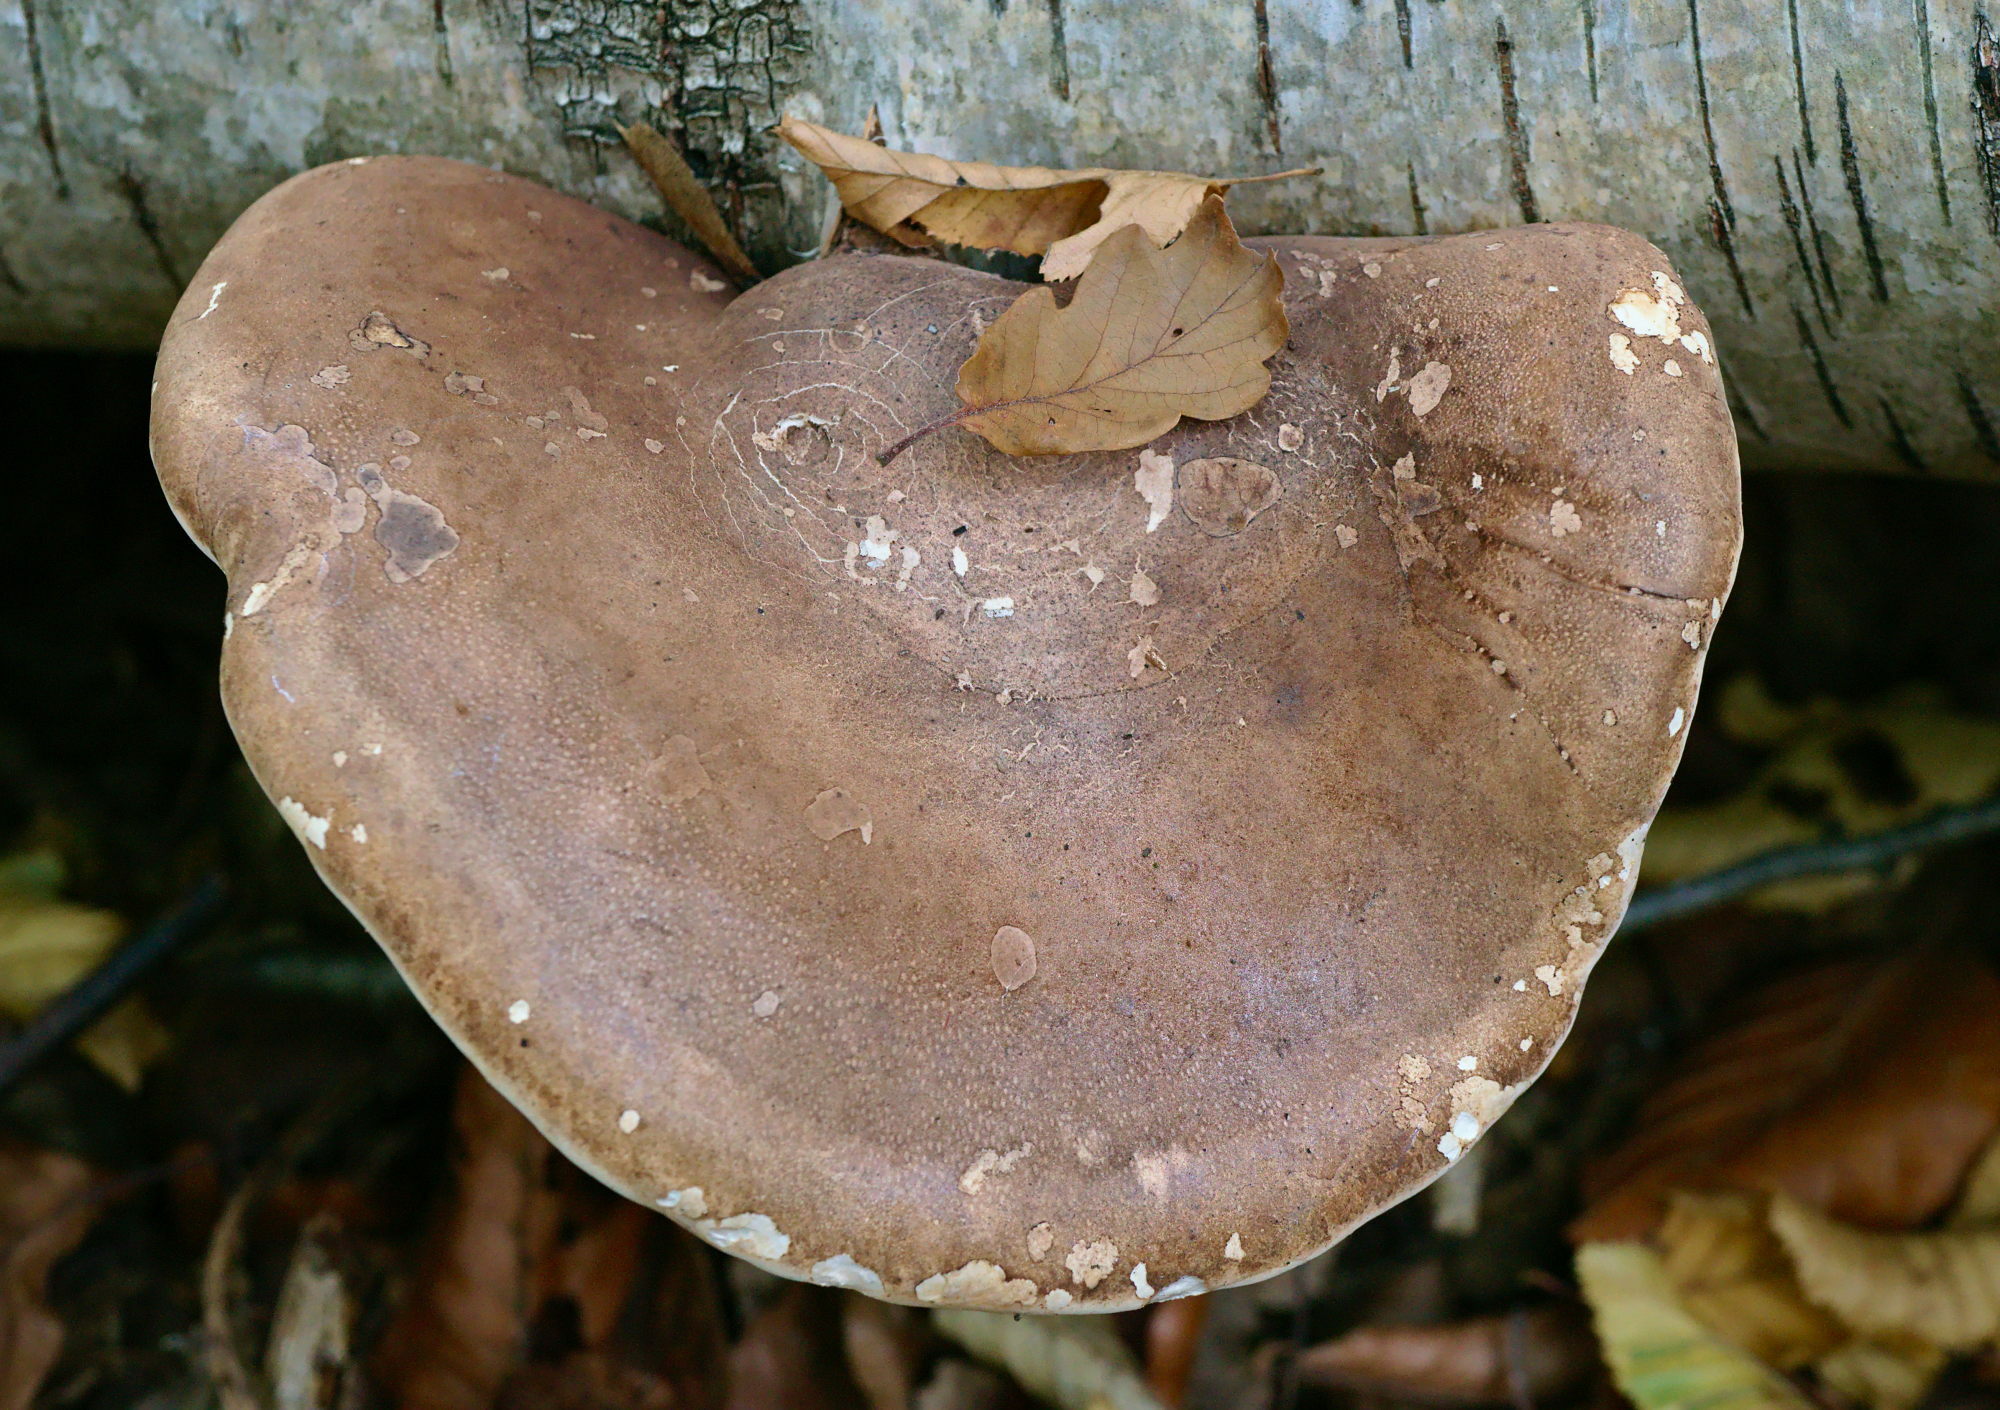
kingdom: Fungi
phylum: Basidiomycota
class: Agaricomycetes
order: Polyporales
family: Fomitopsidaceae
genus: Fomitopsis
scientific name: Fomitopsis betulina
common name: Birch polypore
